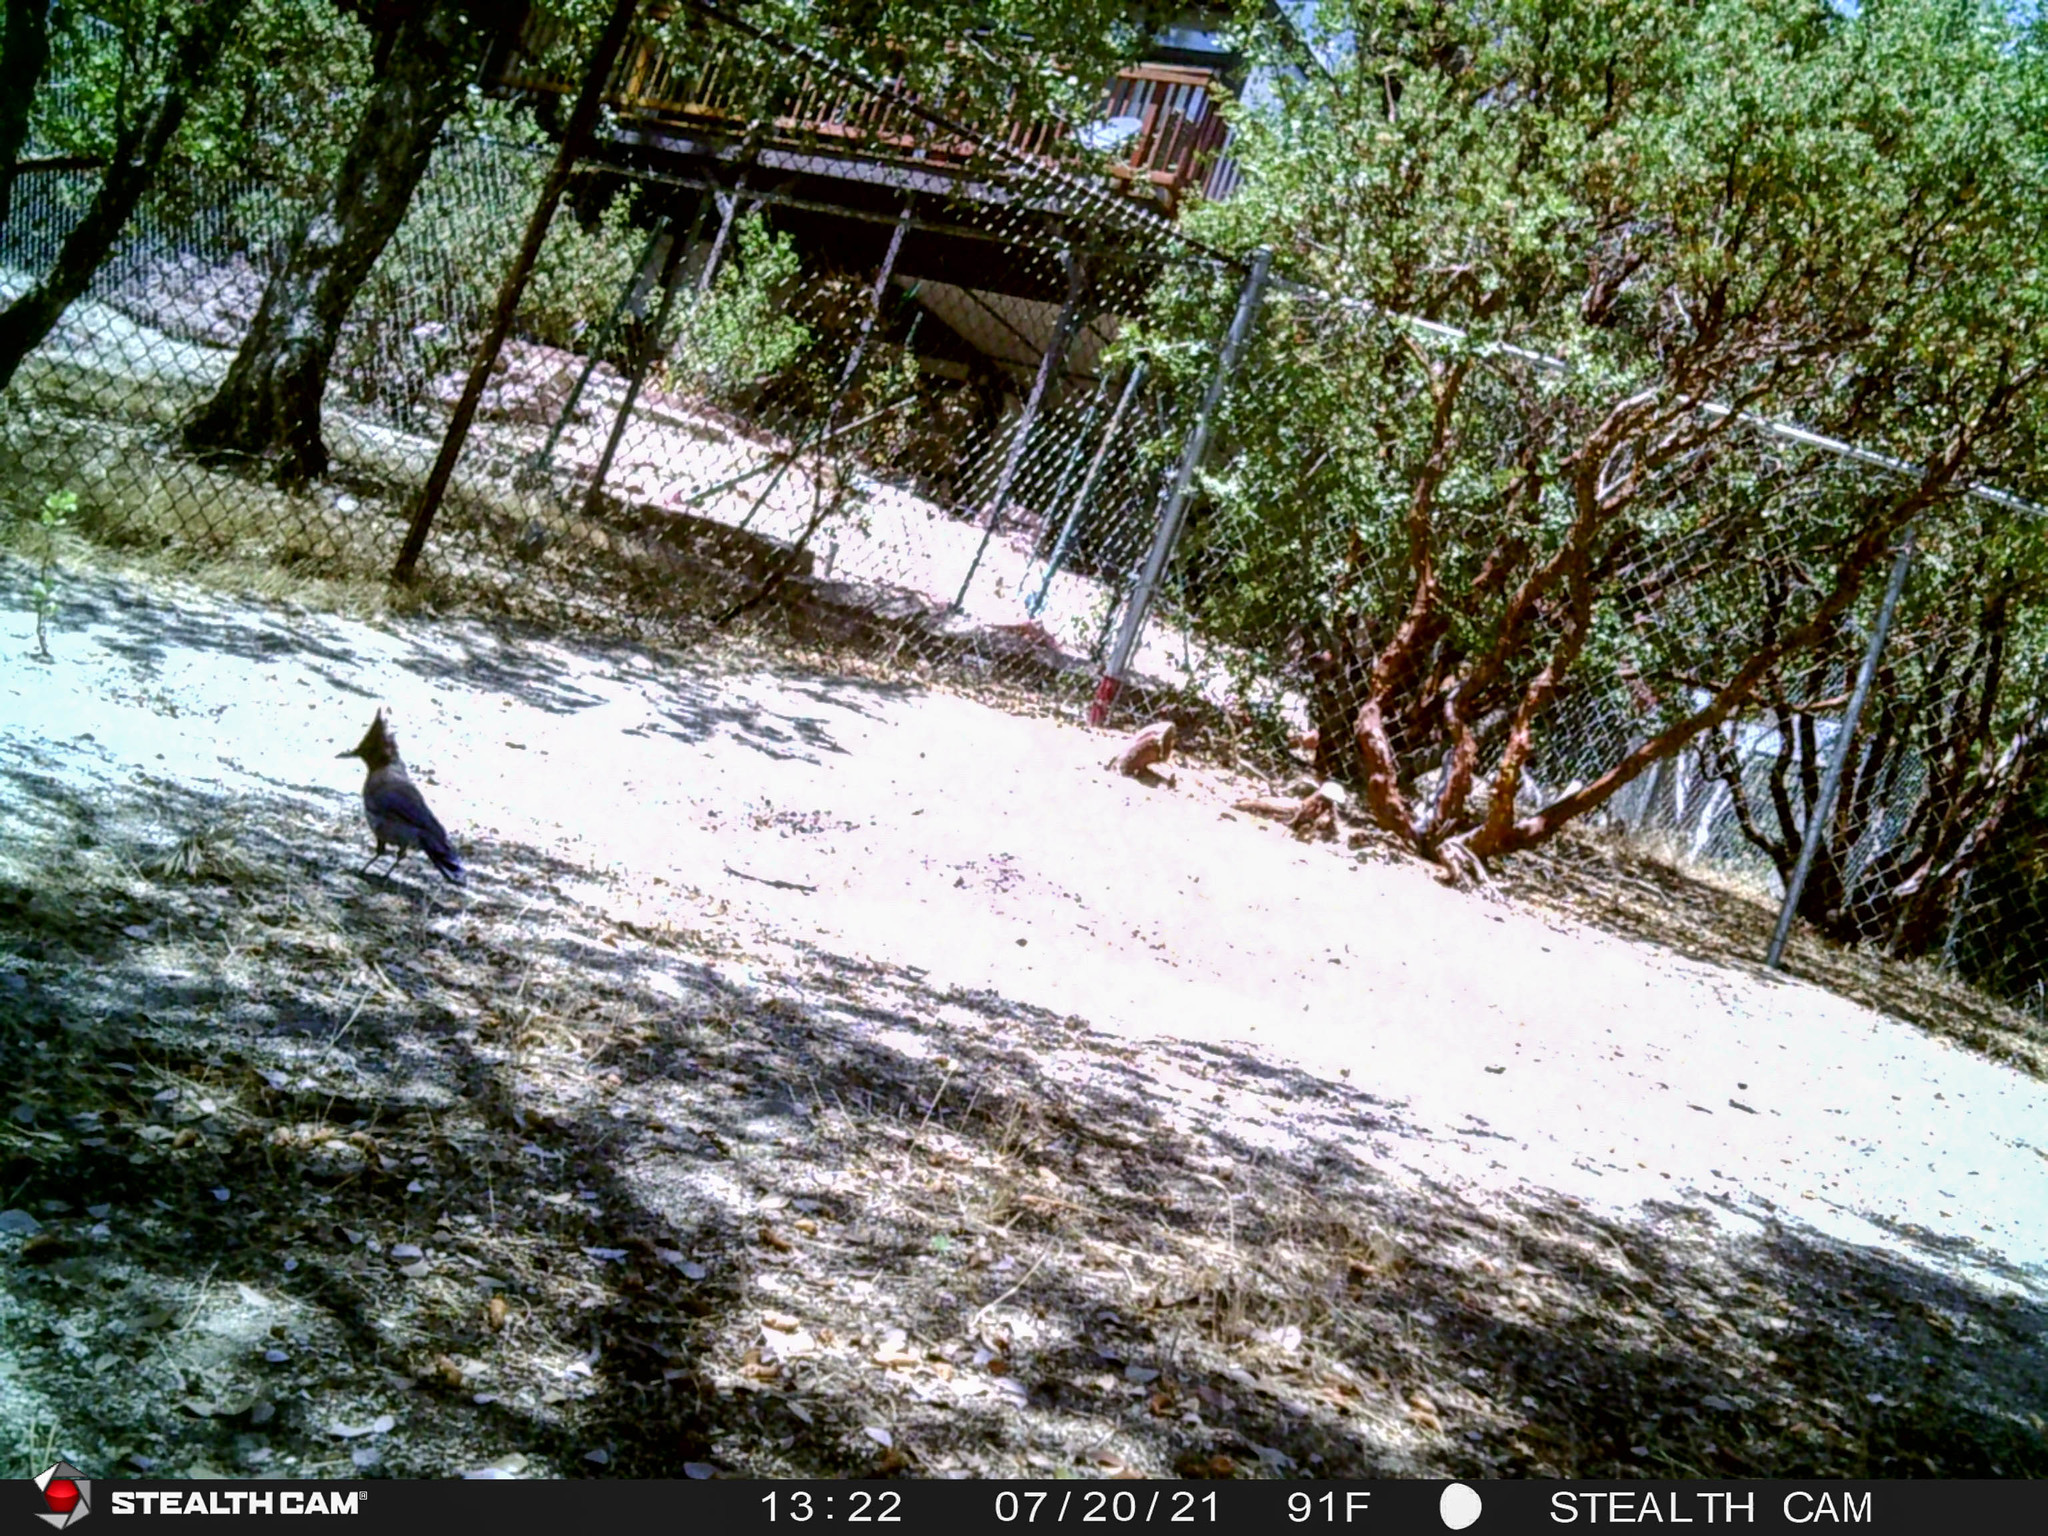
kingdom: Animalia
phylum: Chordata
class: Aves
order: Passeriformes
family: Corvidae
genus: Cyanocitta
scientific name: Cyanocitta stelleri
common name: Steller's jay
